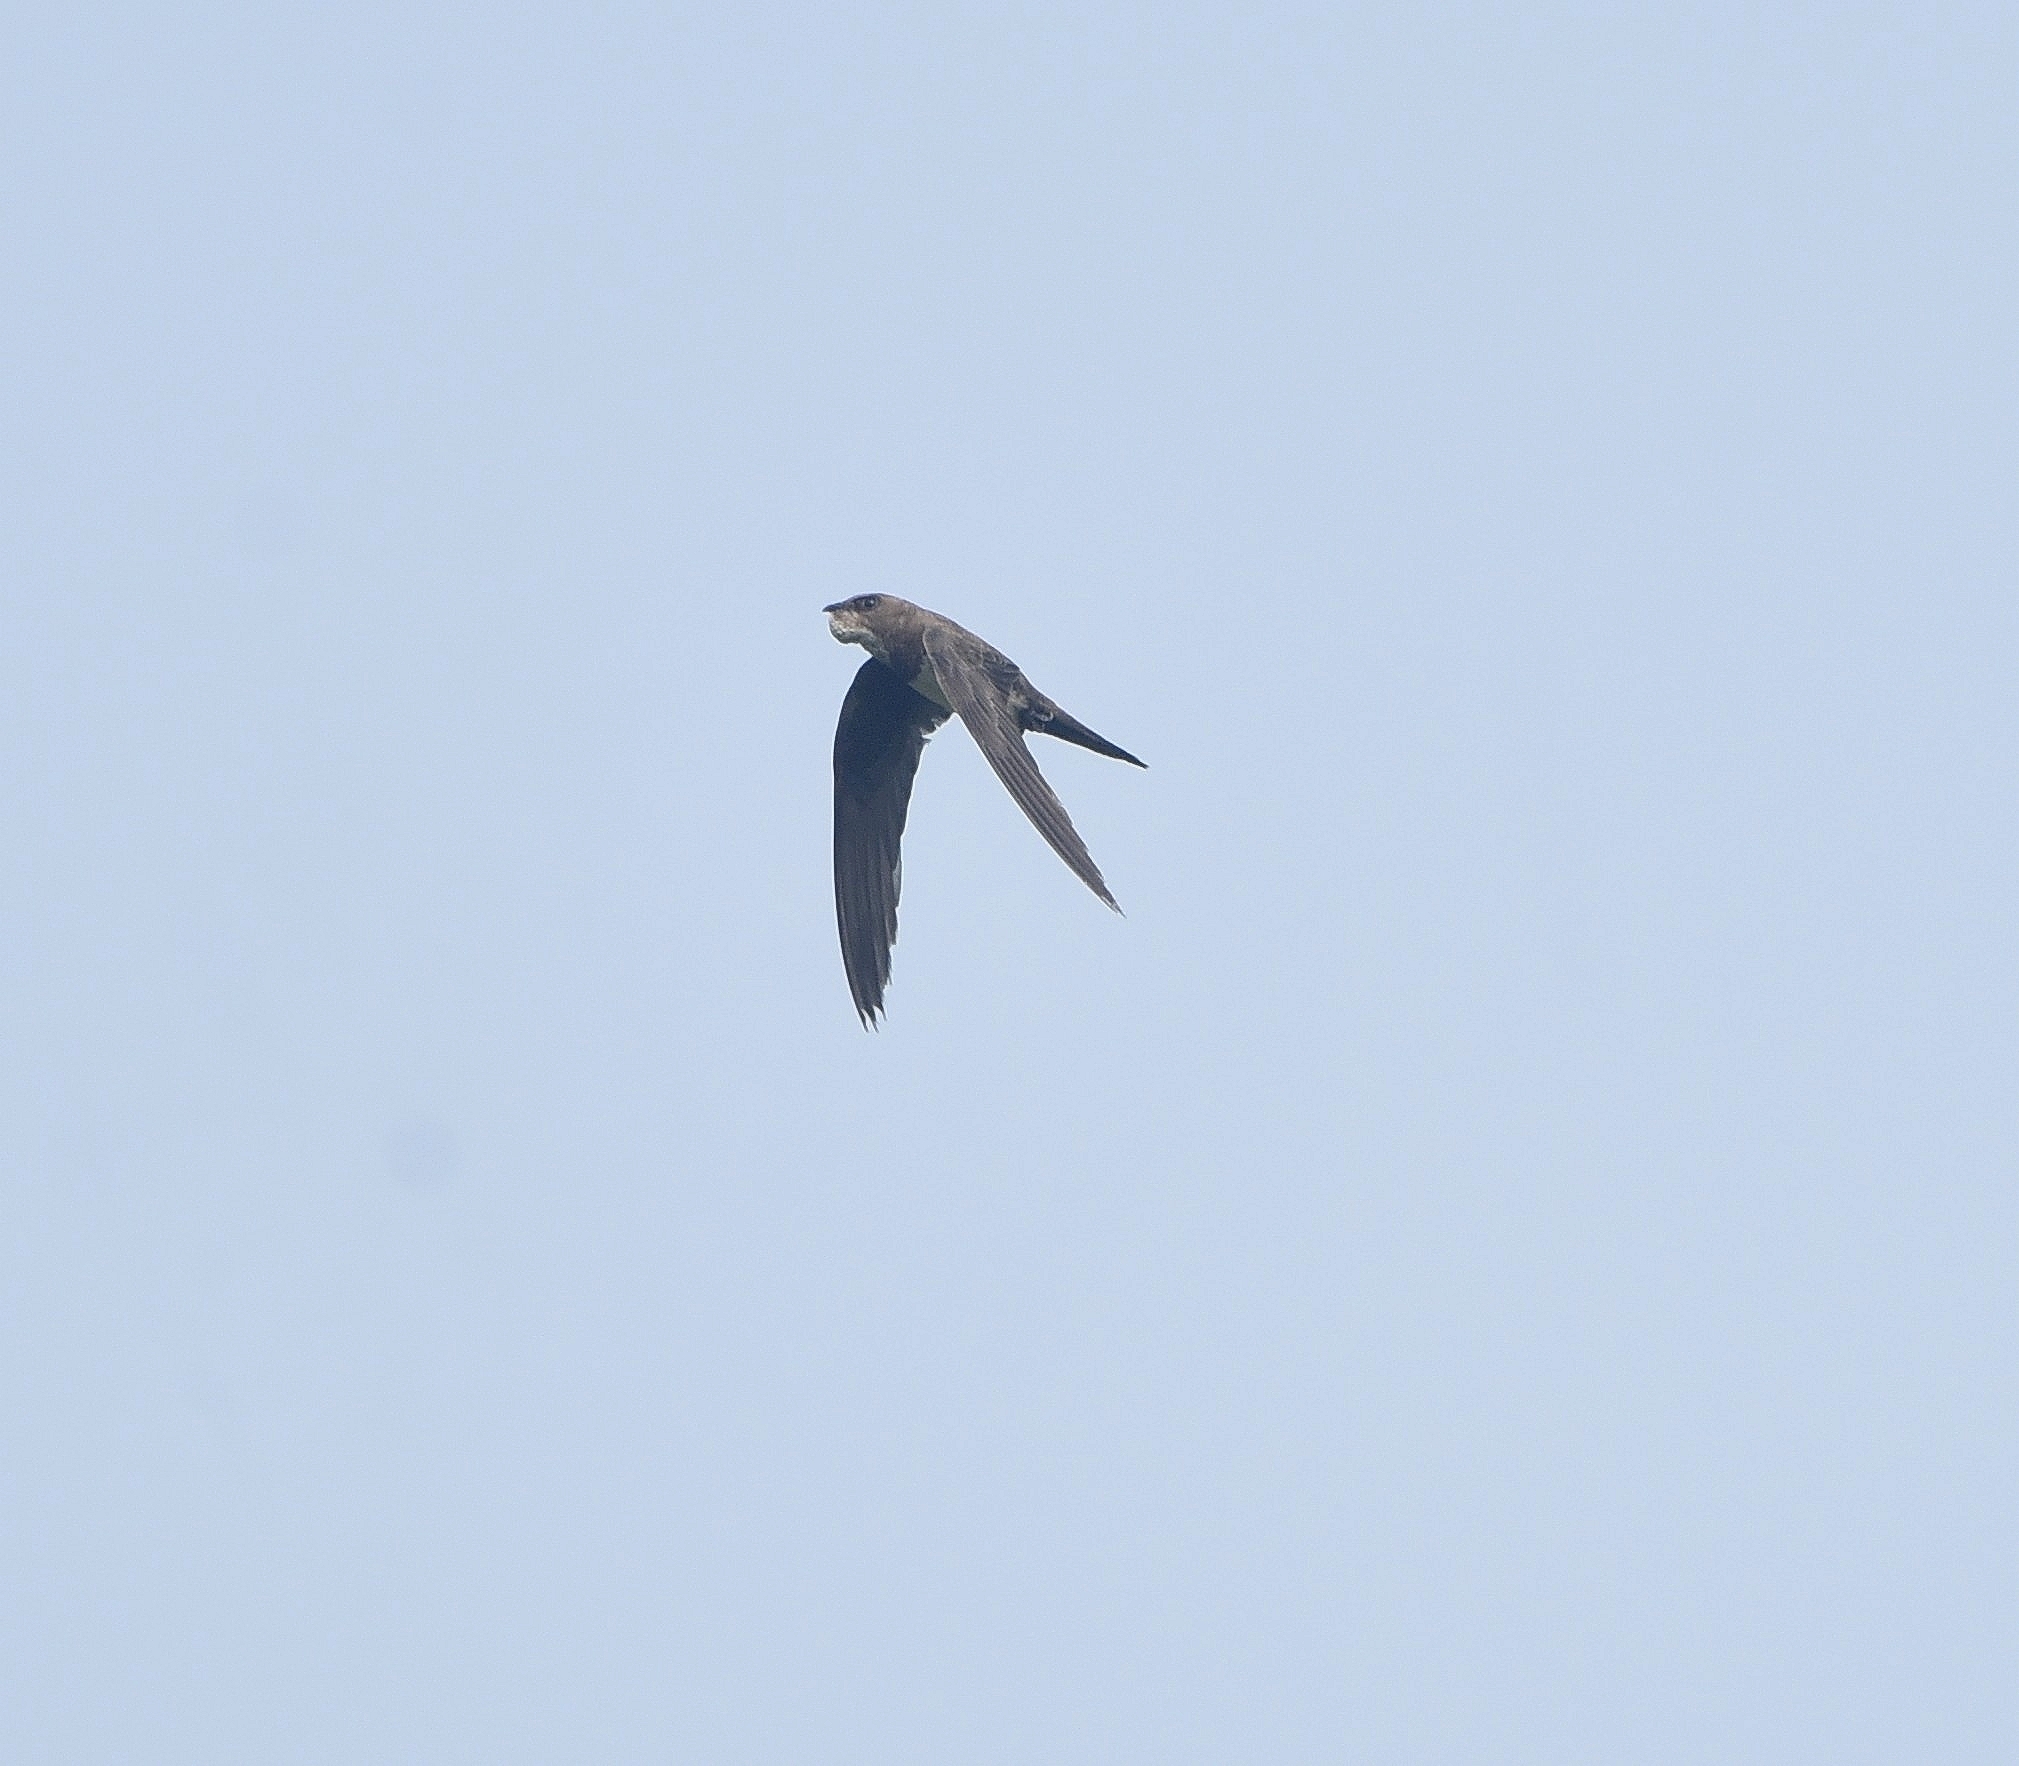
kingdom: Animalia
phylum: Chordata
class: Aves
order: Apodiformes
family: Apodidae
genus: Tachymarptis
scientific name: Tachymarptis melba
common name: Alpine swift
